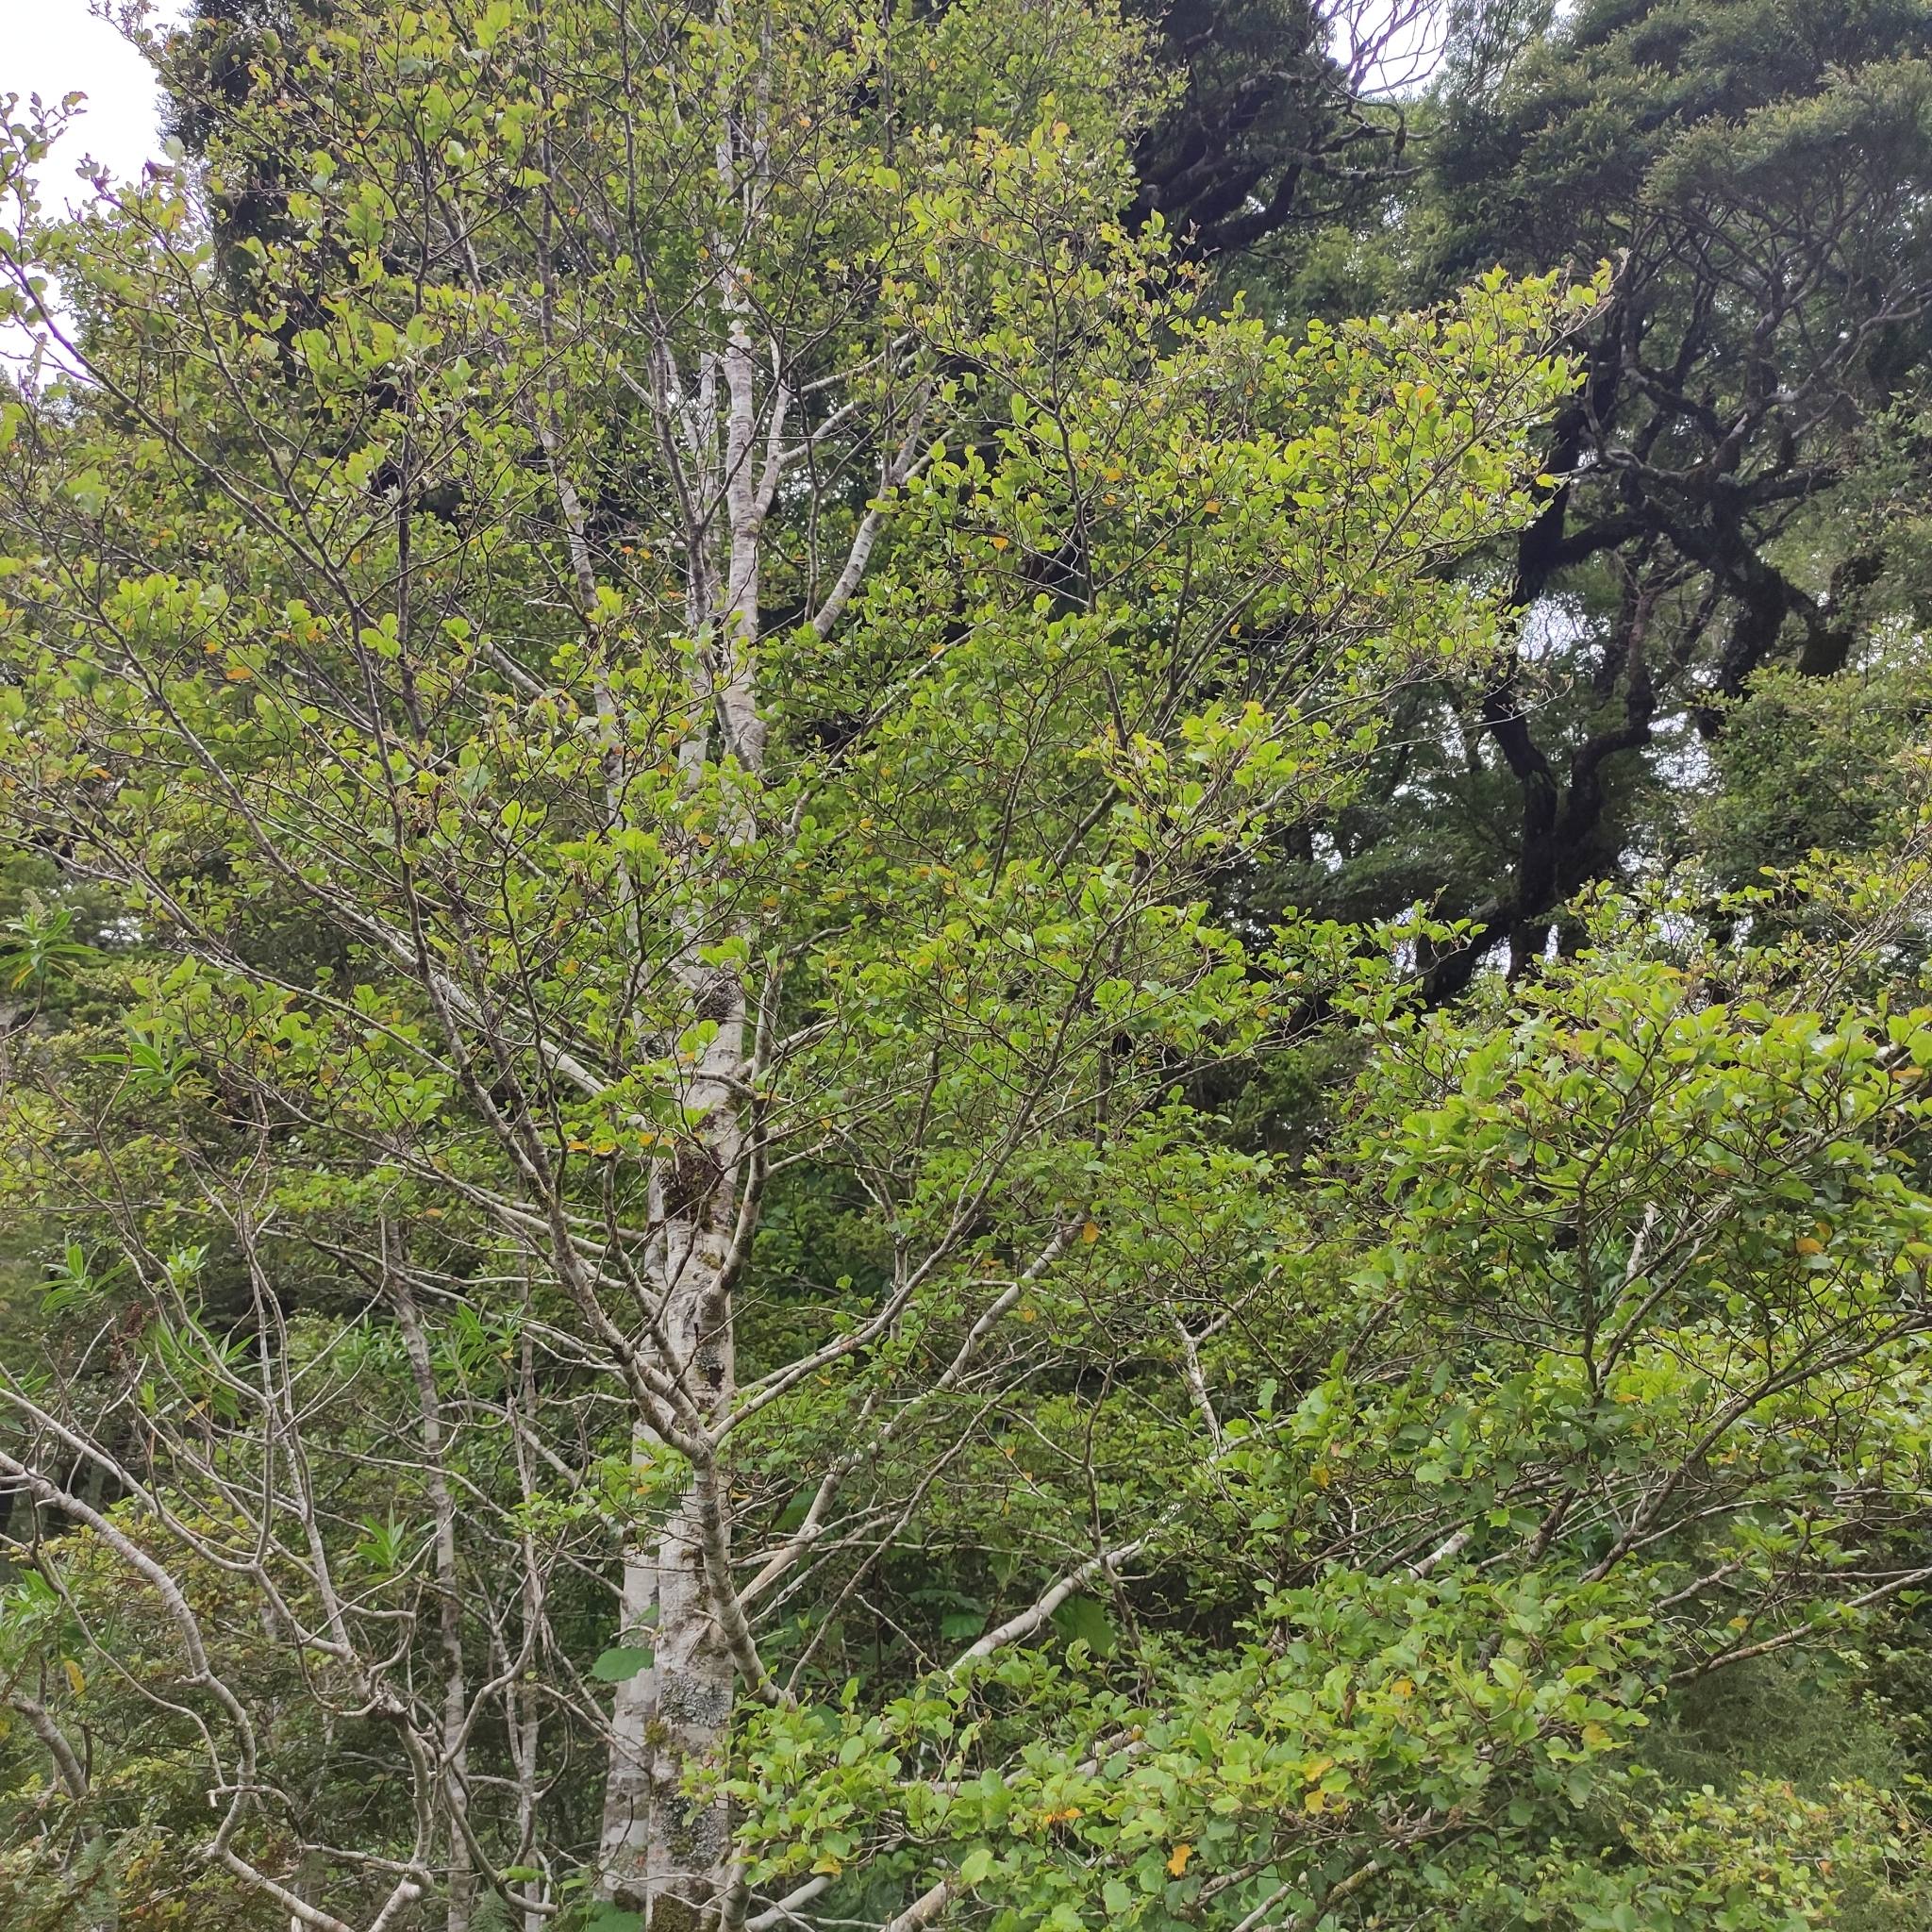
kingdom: Plantae
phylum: Tracheophyta
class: Magnoliopsida
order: Fagales
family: Nothofagaceae
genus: Nothofagus
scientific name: Nothofagus fusca
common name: Red beech
